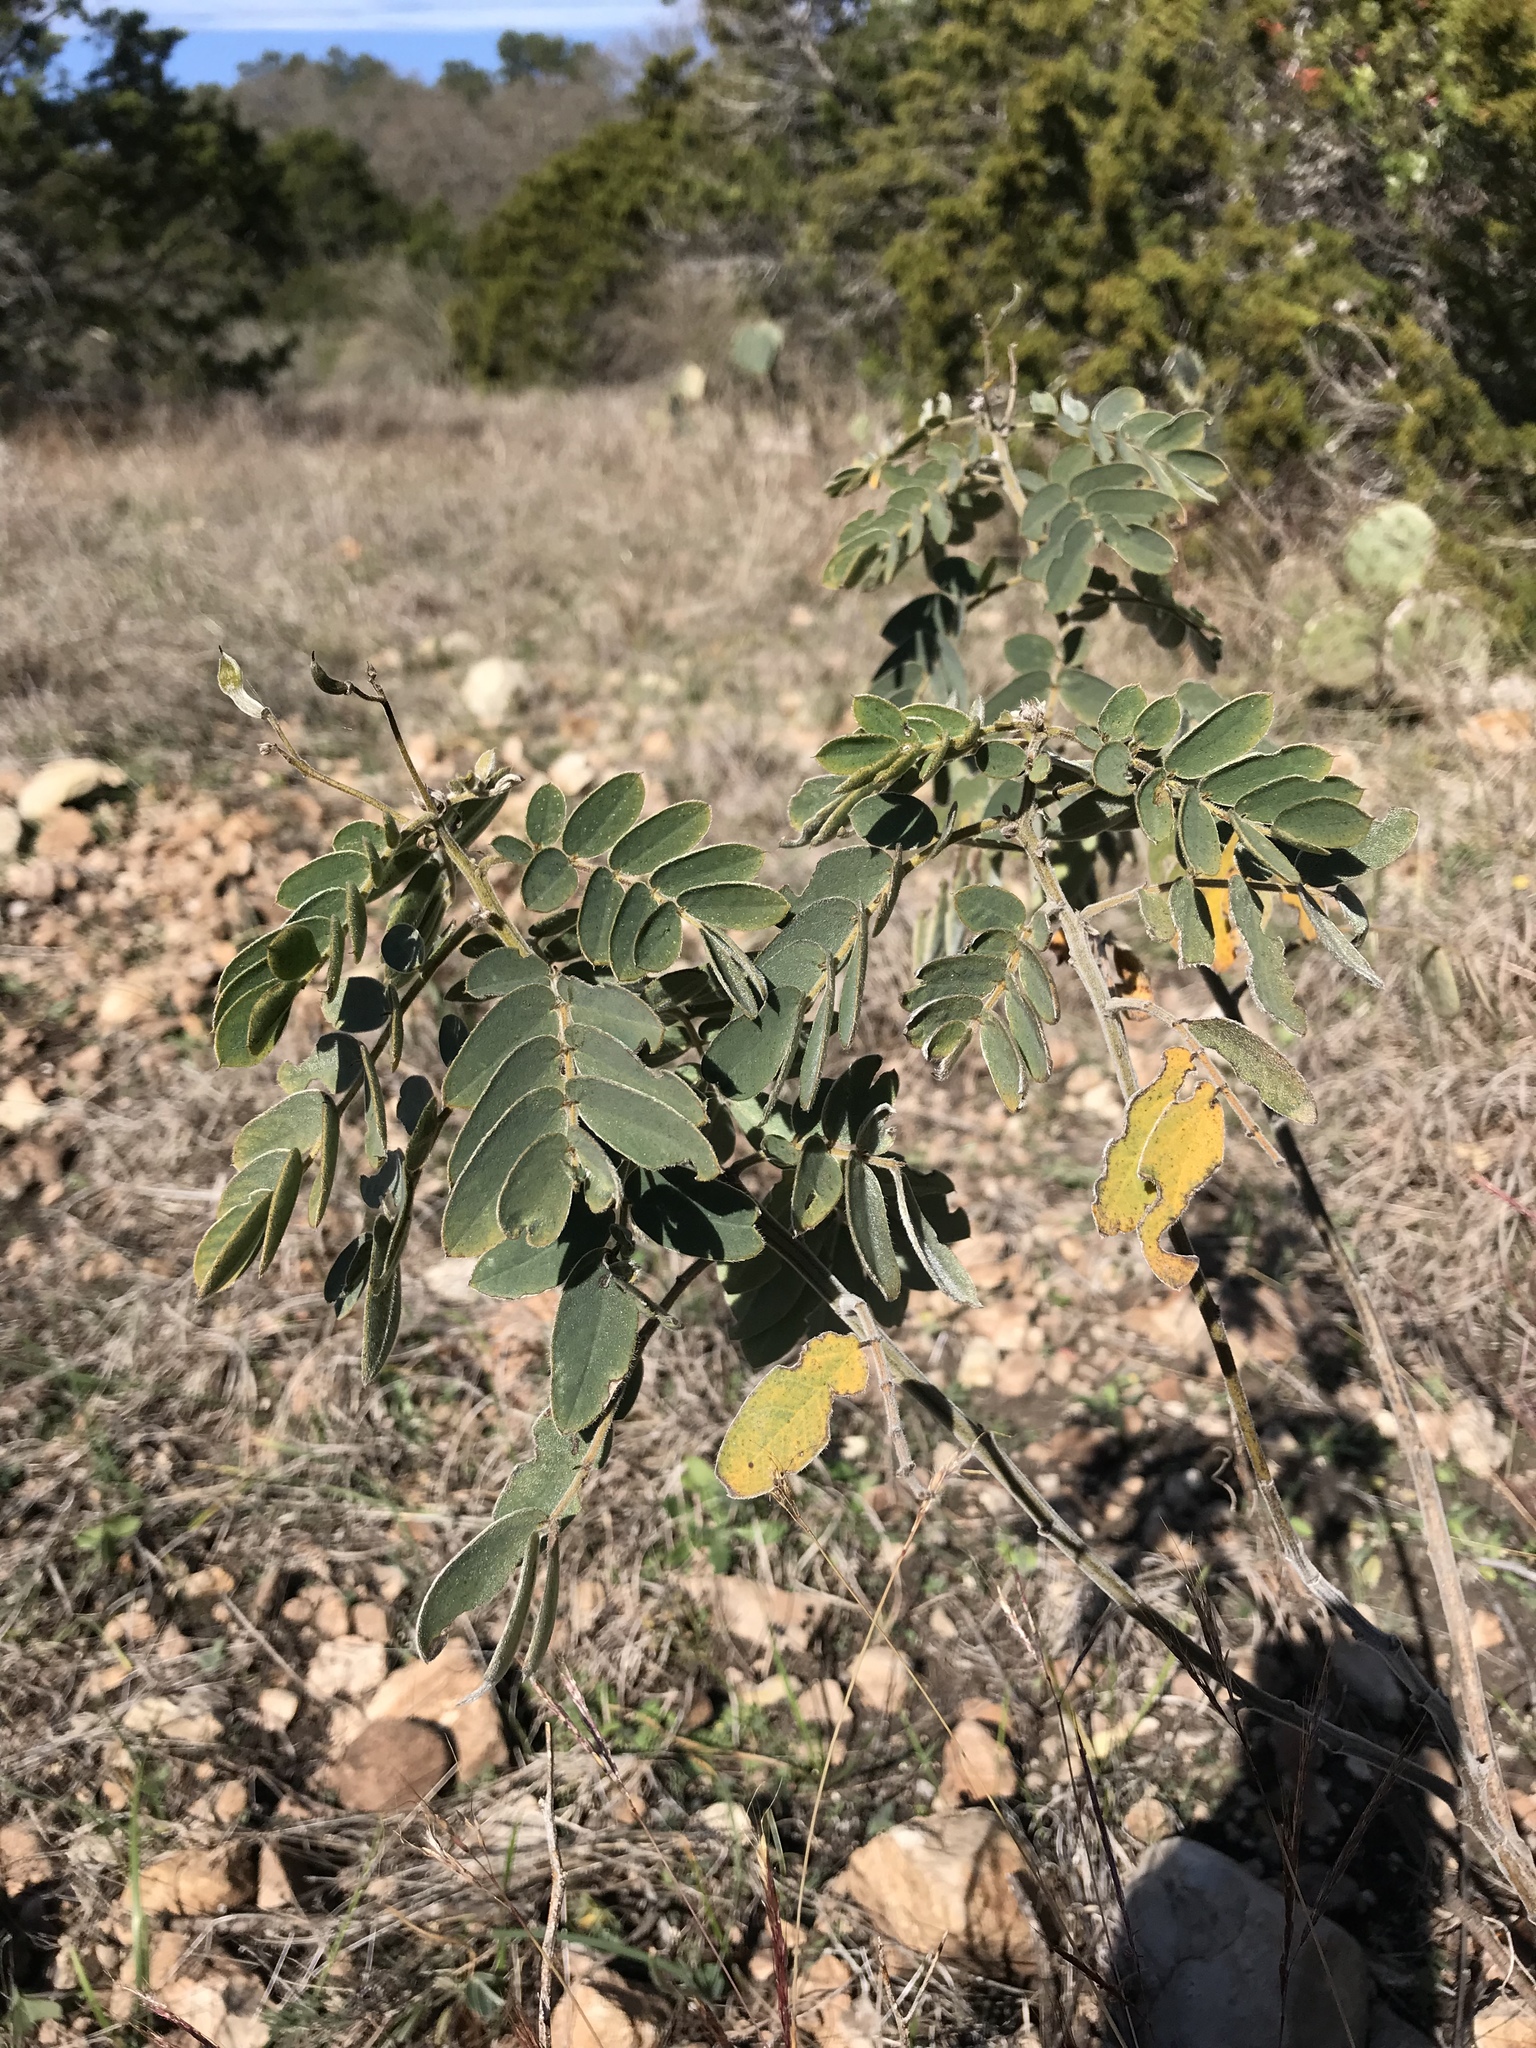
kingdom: Plantae
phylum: Tracheophyta
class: Magnoliopsida
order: Fabales
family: Fabaceae
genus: Senna
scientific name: Senna lindheimeriana
